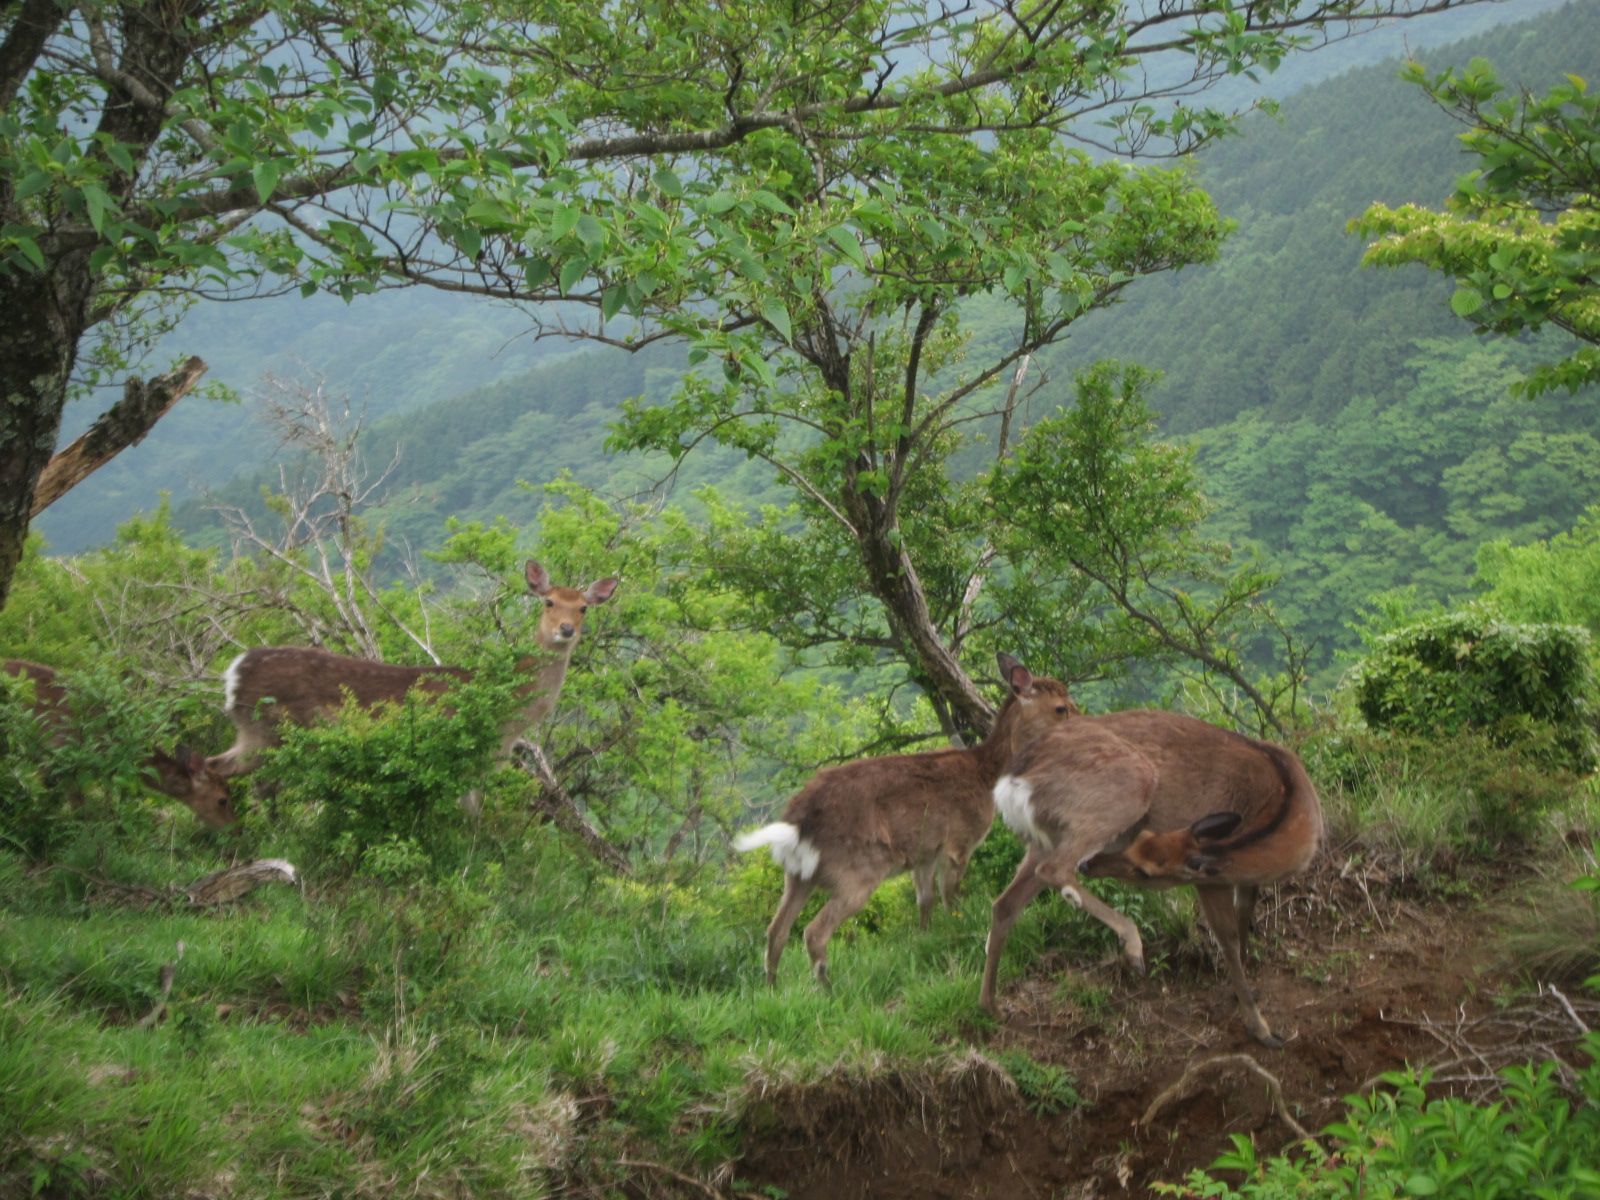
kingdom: Animalia
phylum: Chordata
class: Mammalia
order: Artiodactyla
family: Cervidae
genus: Cervus
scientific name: Cervus nippon
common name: Sika deer
